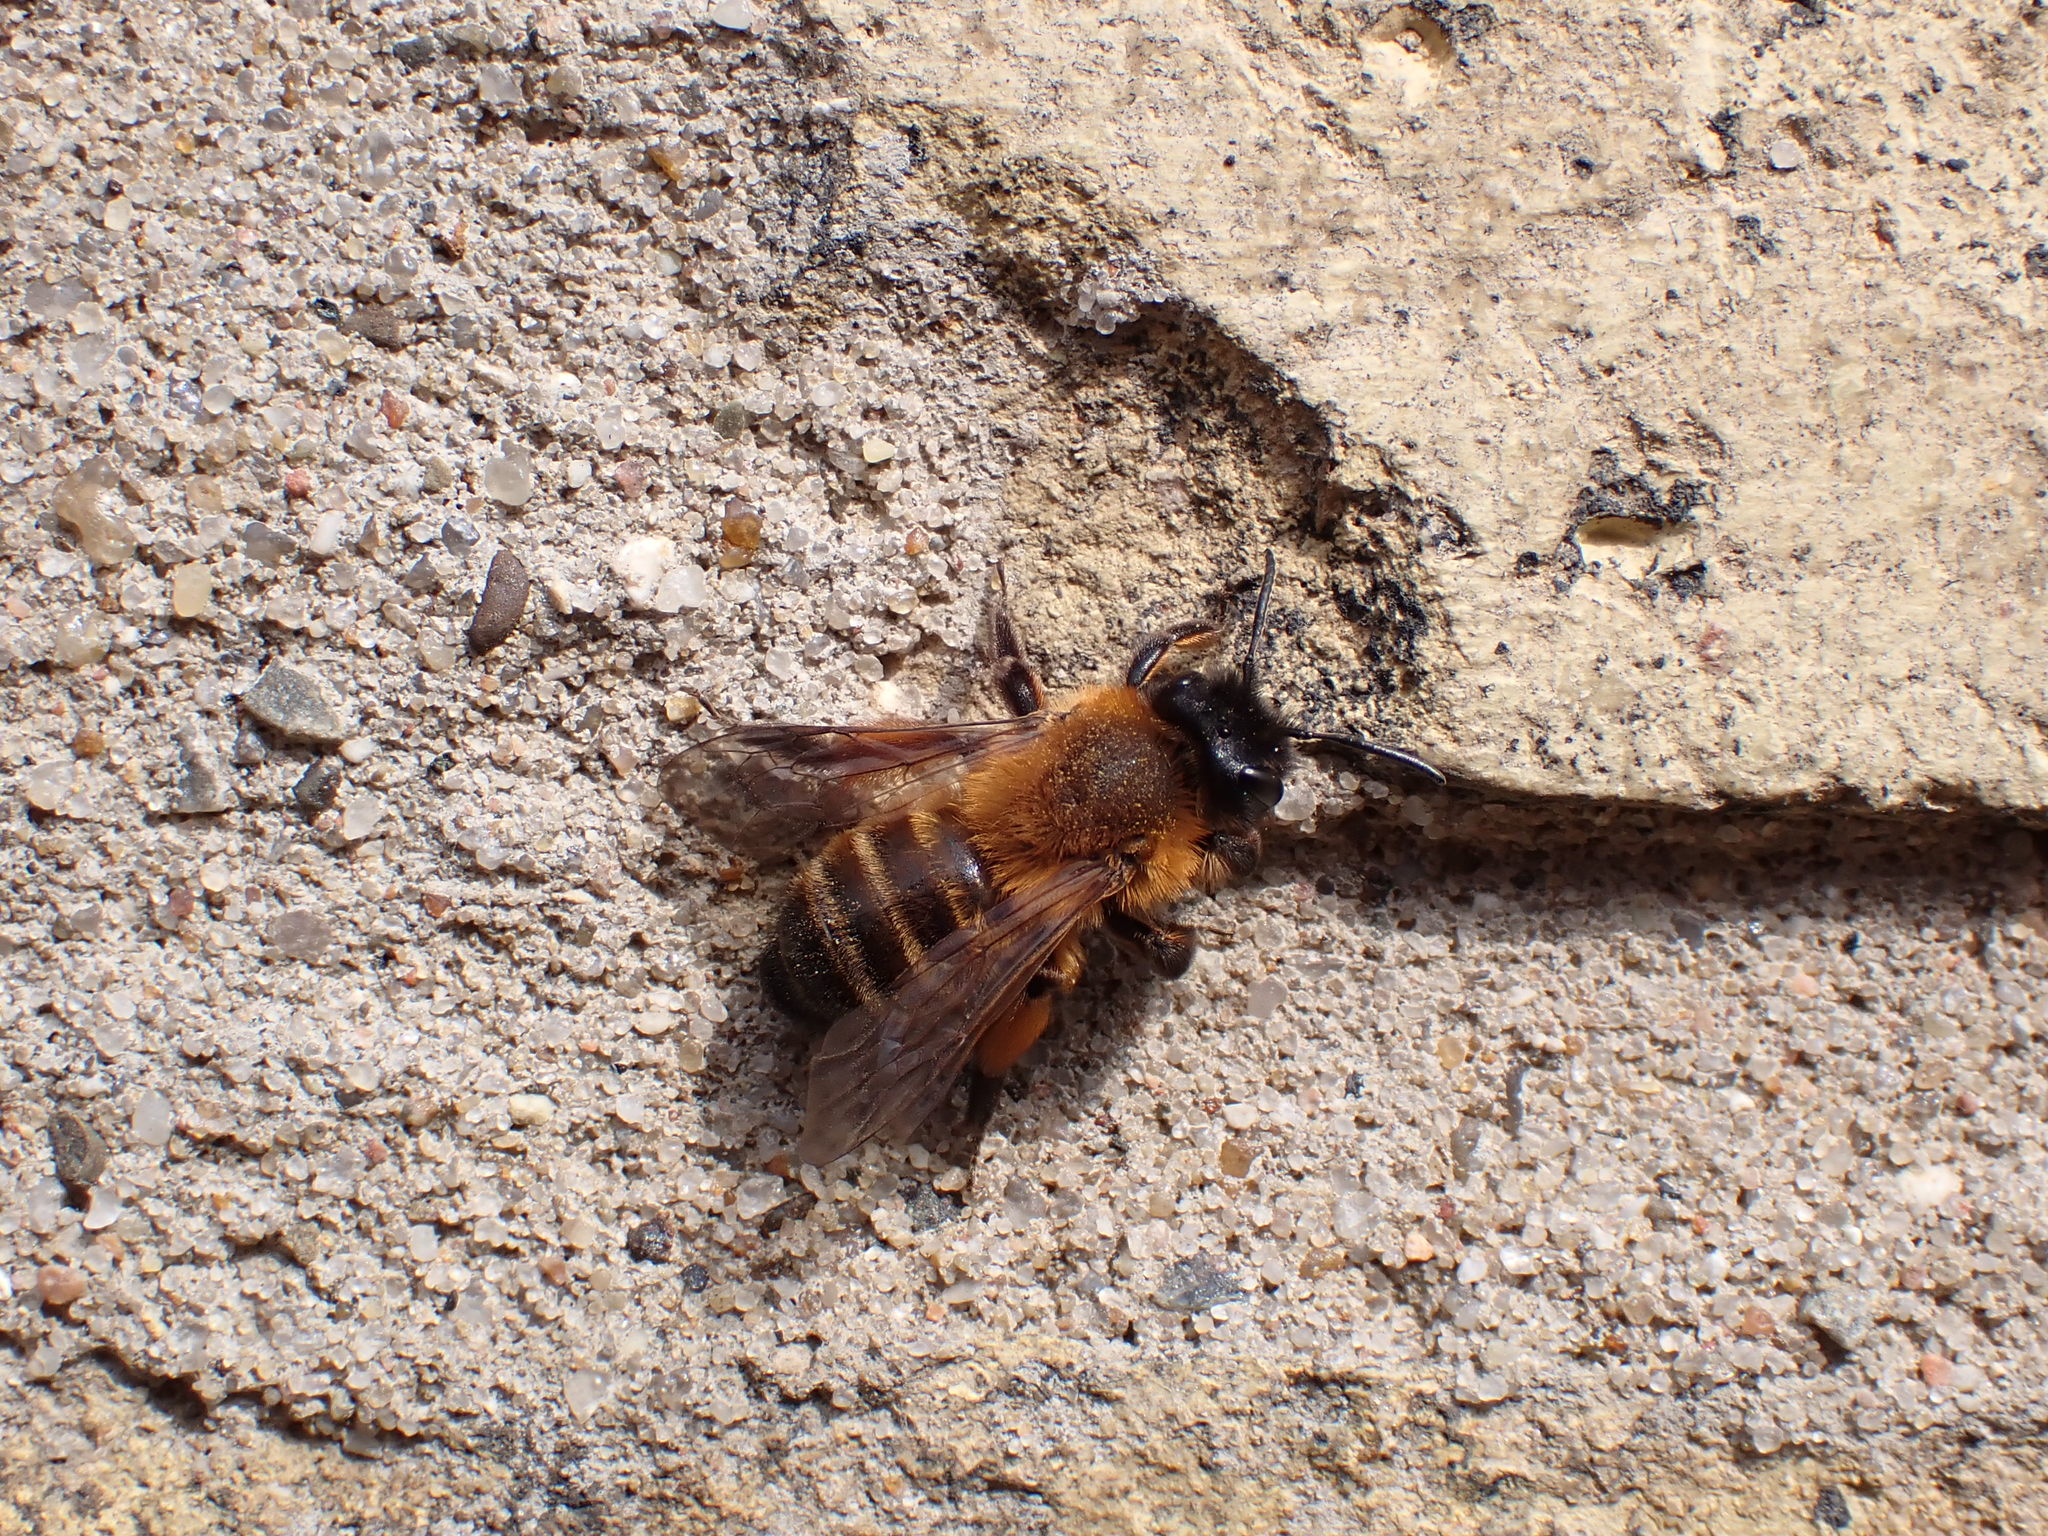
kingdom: Animalia
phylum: Arthropoda
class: Insecta
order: Hymenoptera
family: Andrenidae
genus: Andrena
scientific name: Andrena nigroaenea
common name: Buffish mining bee
